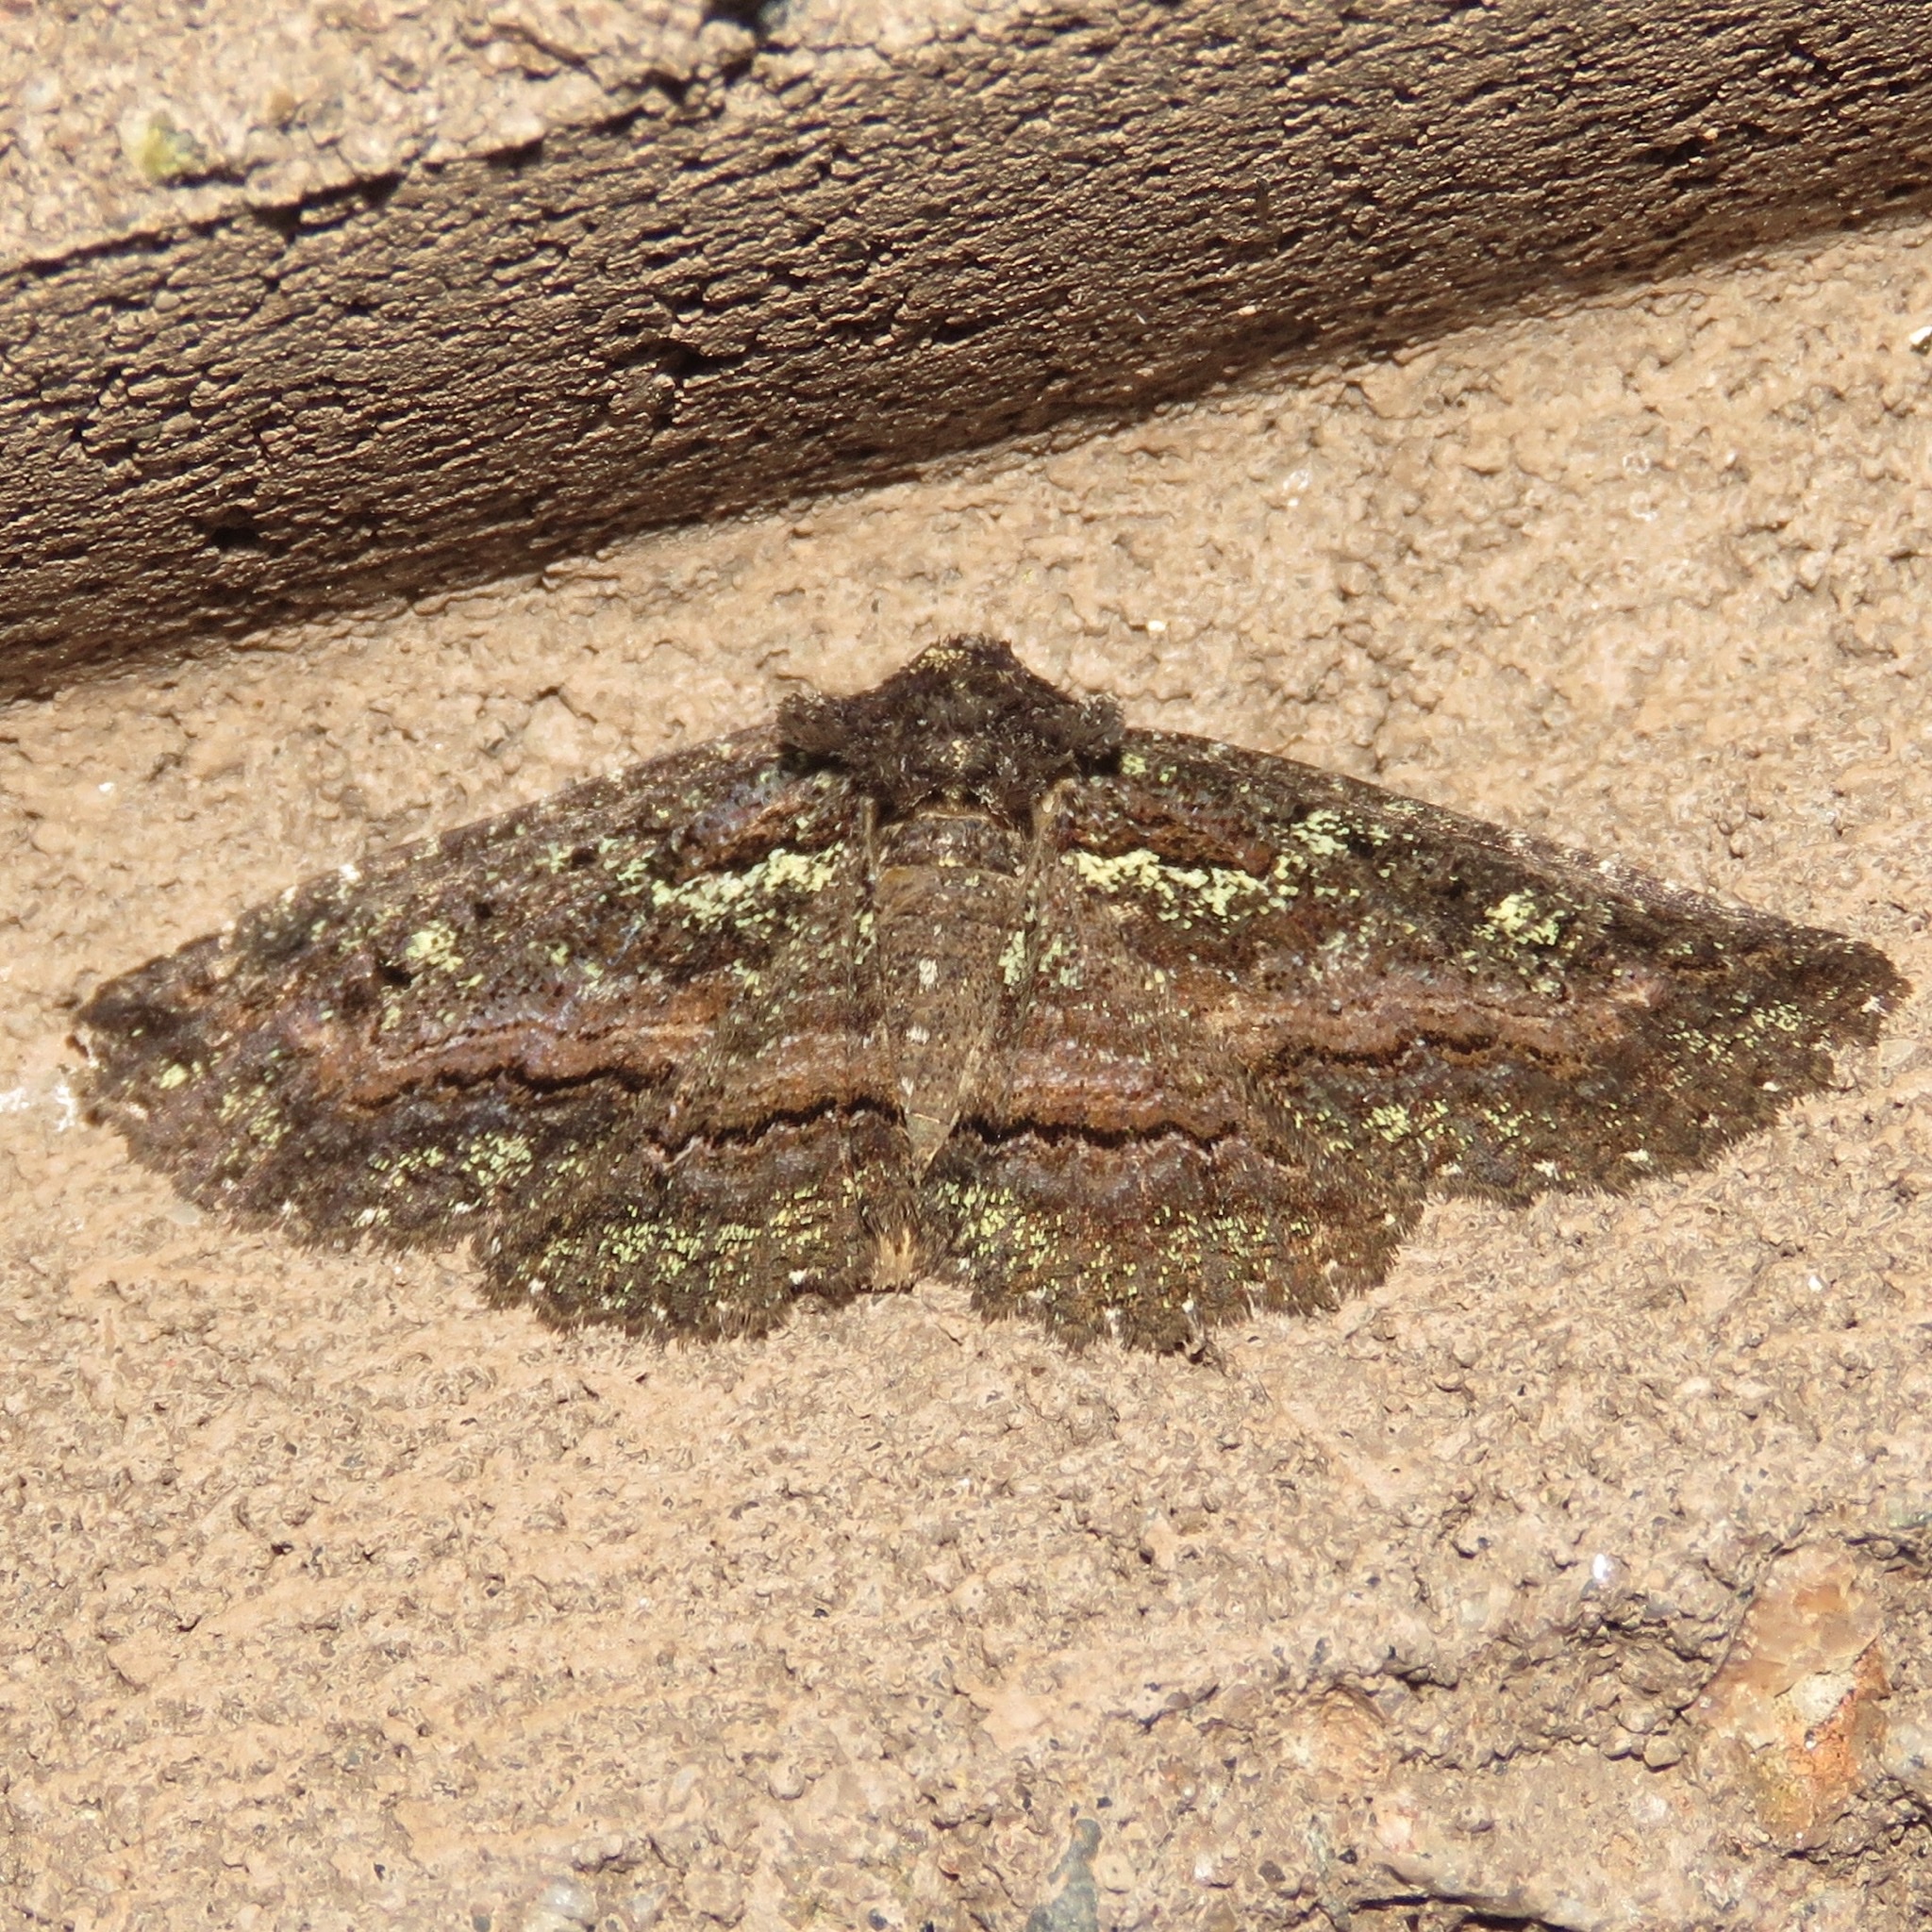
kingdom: Animalia
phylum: Arthropoda
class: Insecta
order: Lepidoptera
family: Erebidae
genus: Zale
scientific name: Zale aeruginosa
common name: Green-dusted zale moth
